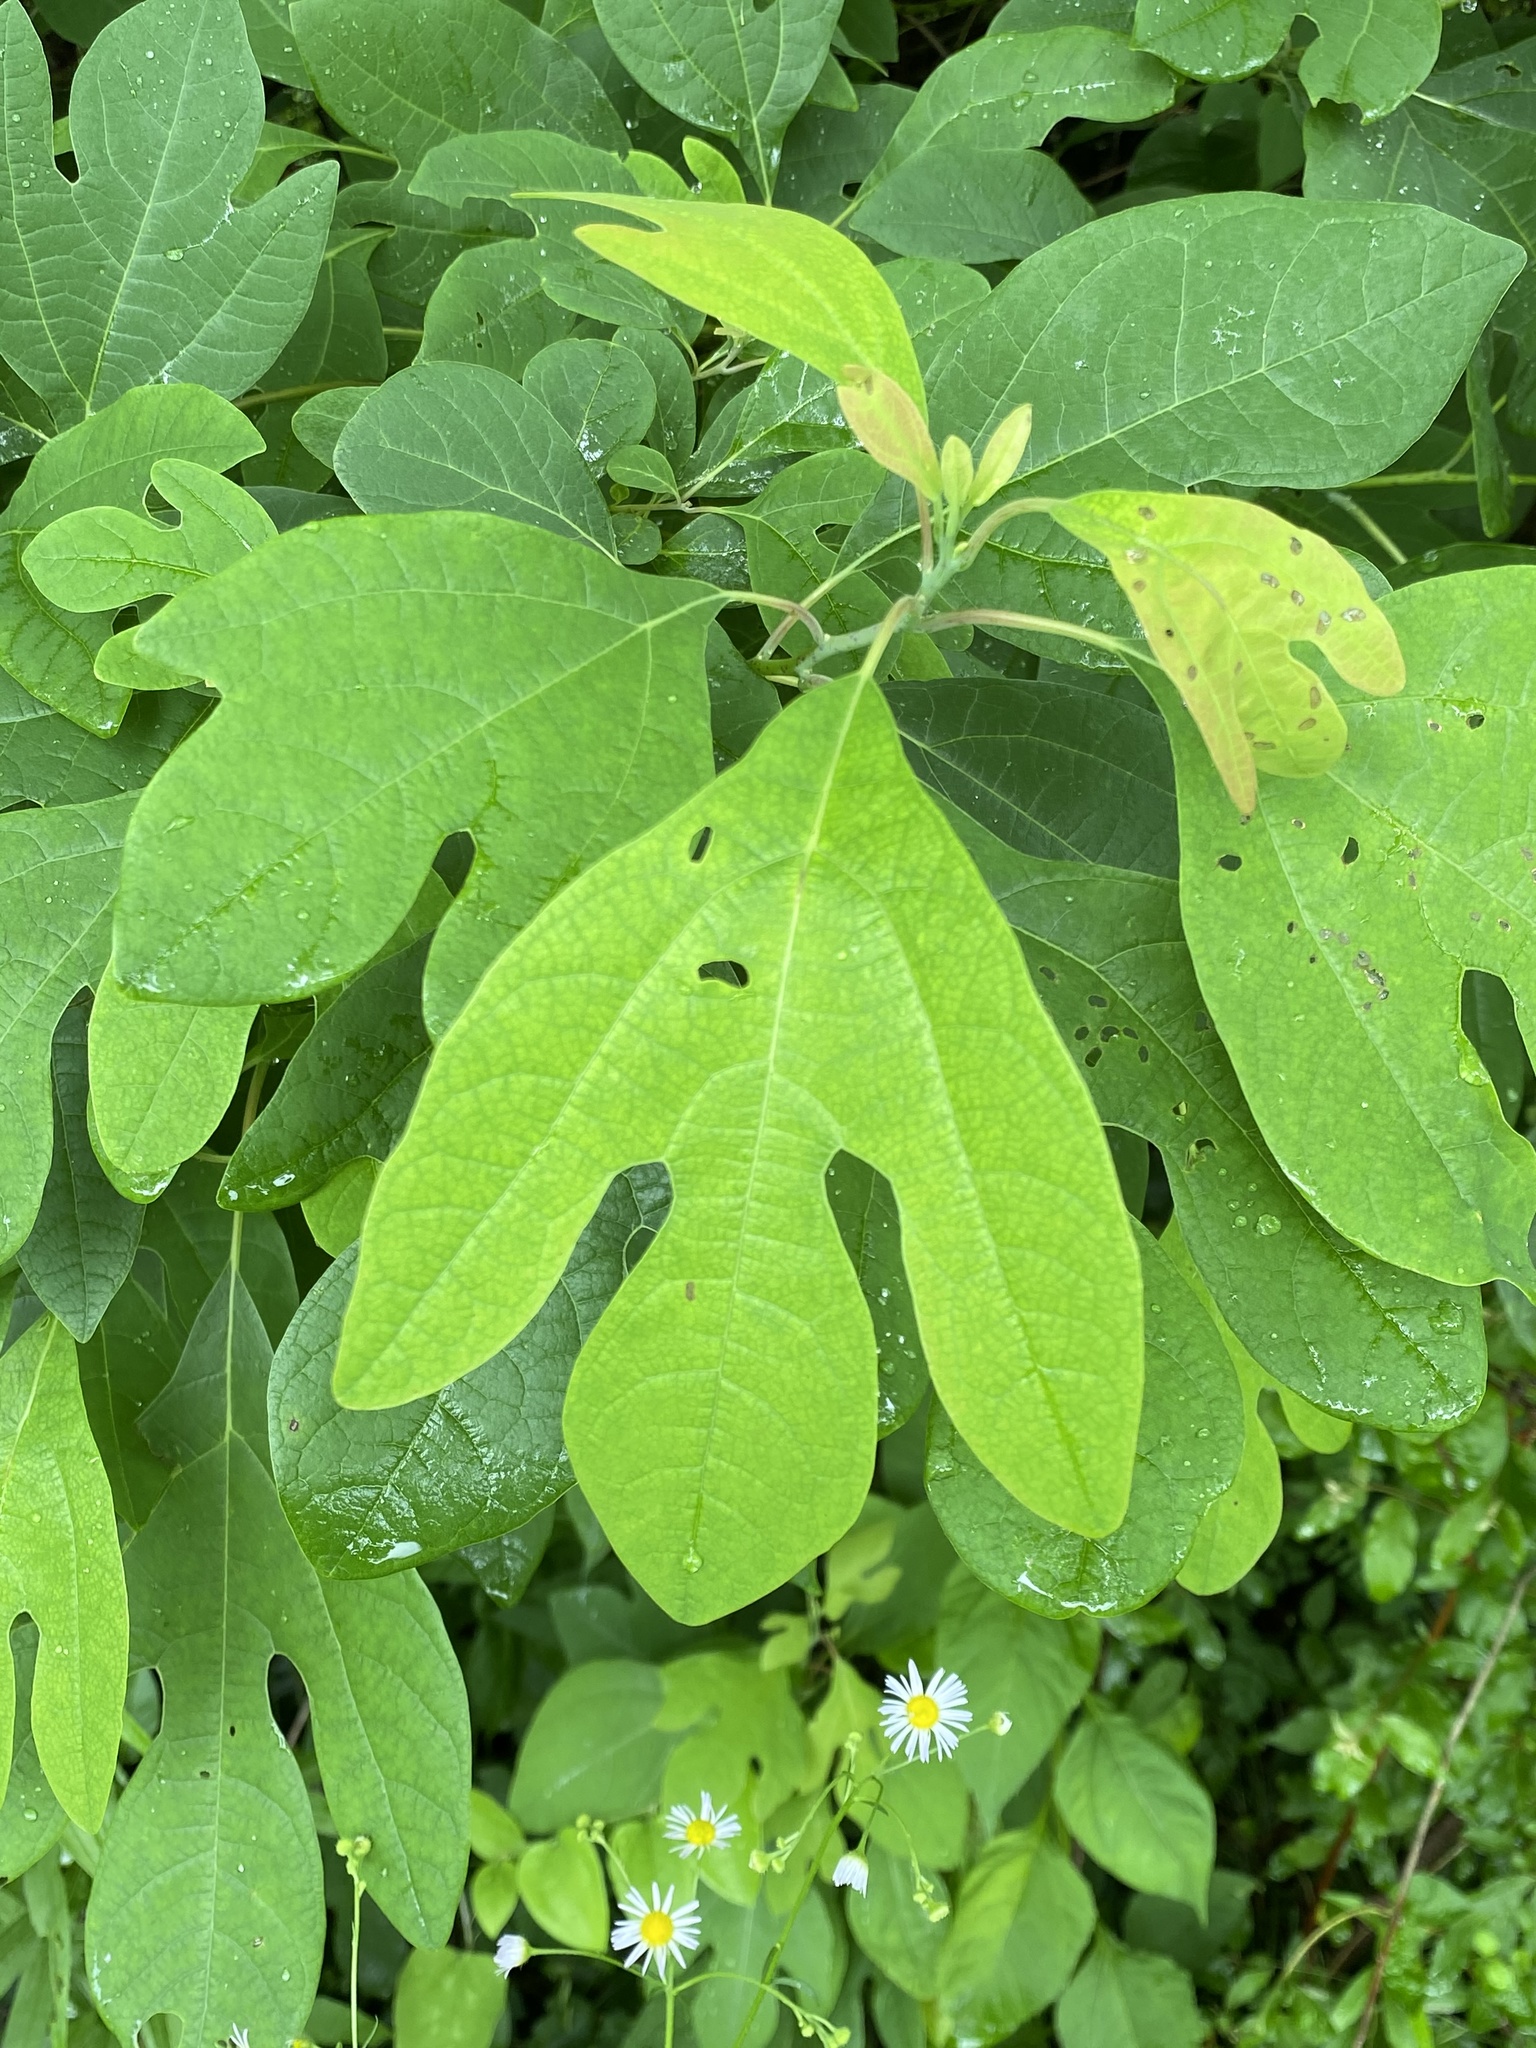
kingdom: Plantae
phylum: Tracheophyta
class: Magnoliopsida
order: Laurales
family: Lauraceae
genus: Sassafras
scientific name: Sassafras albidum
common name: Sassafras
